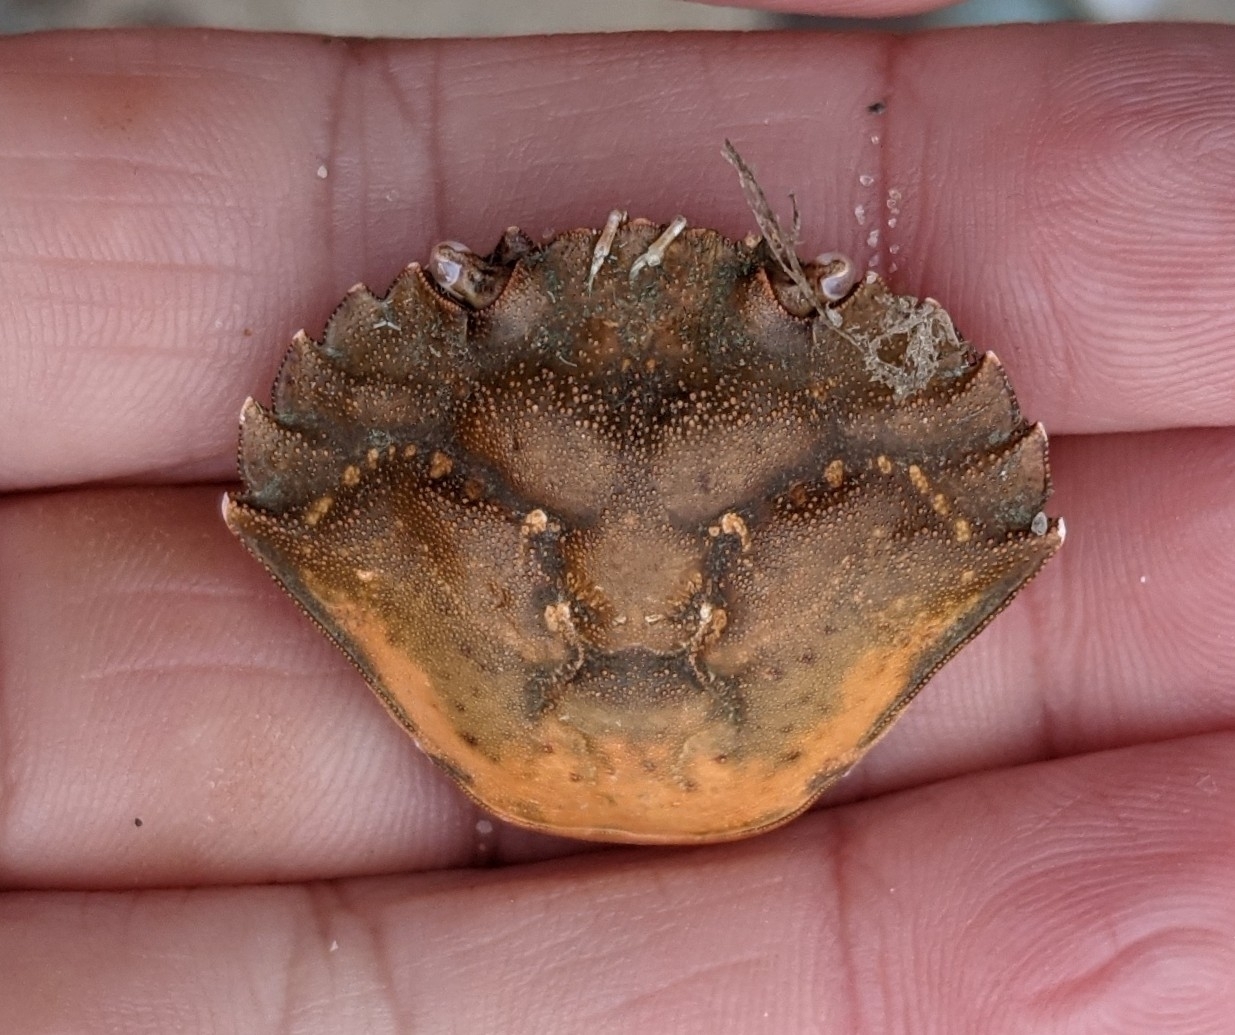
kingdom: Animalia
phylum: Arthropoda
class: Malacostraca
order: Decapoda
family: Carcinidae
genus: Carcinus
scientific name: Carcinus maenas
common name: European green crab
